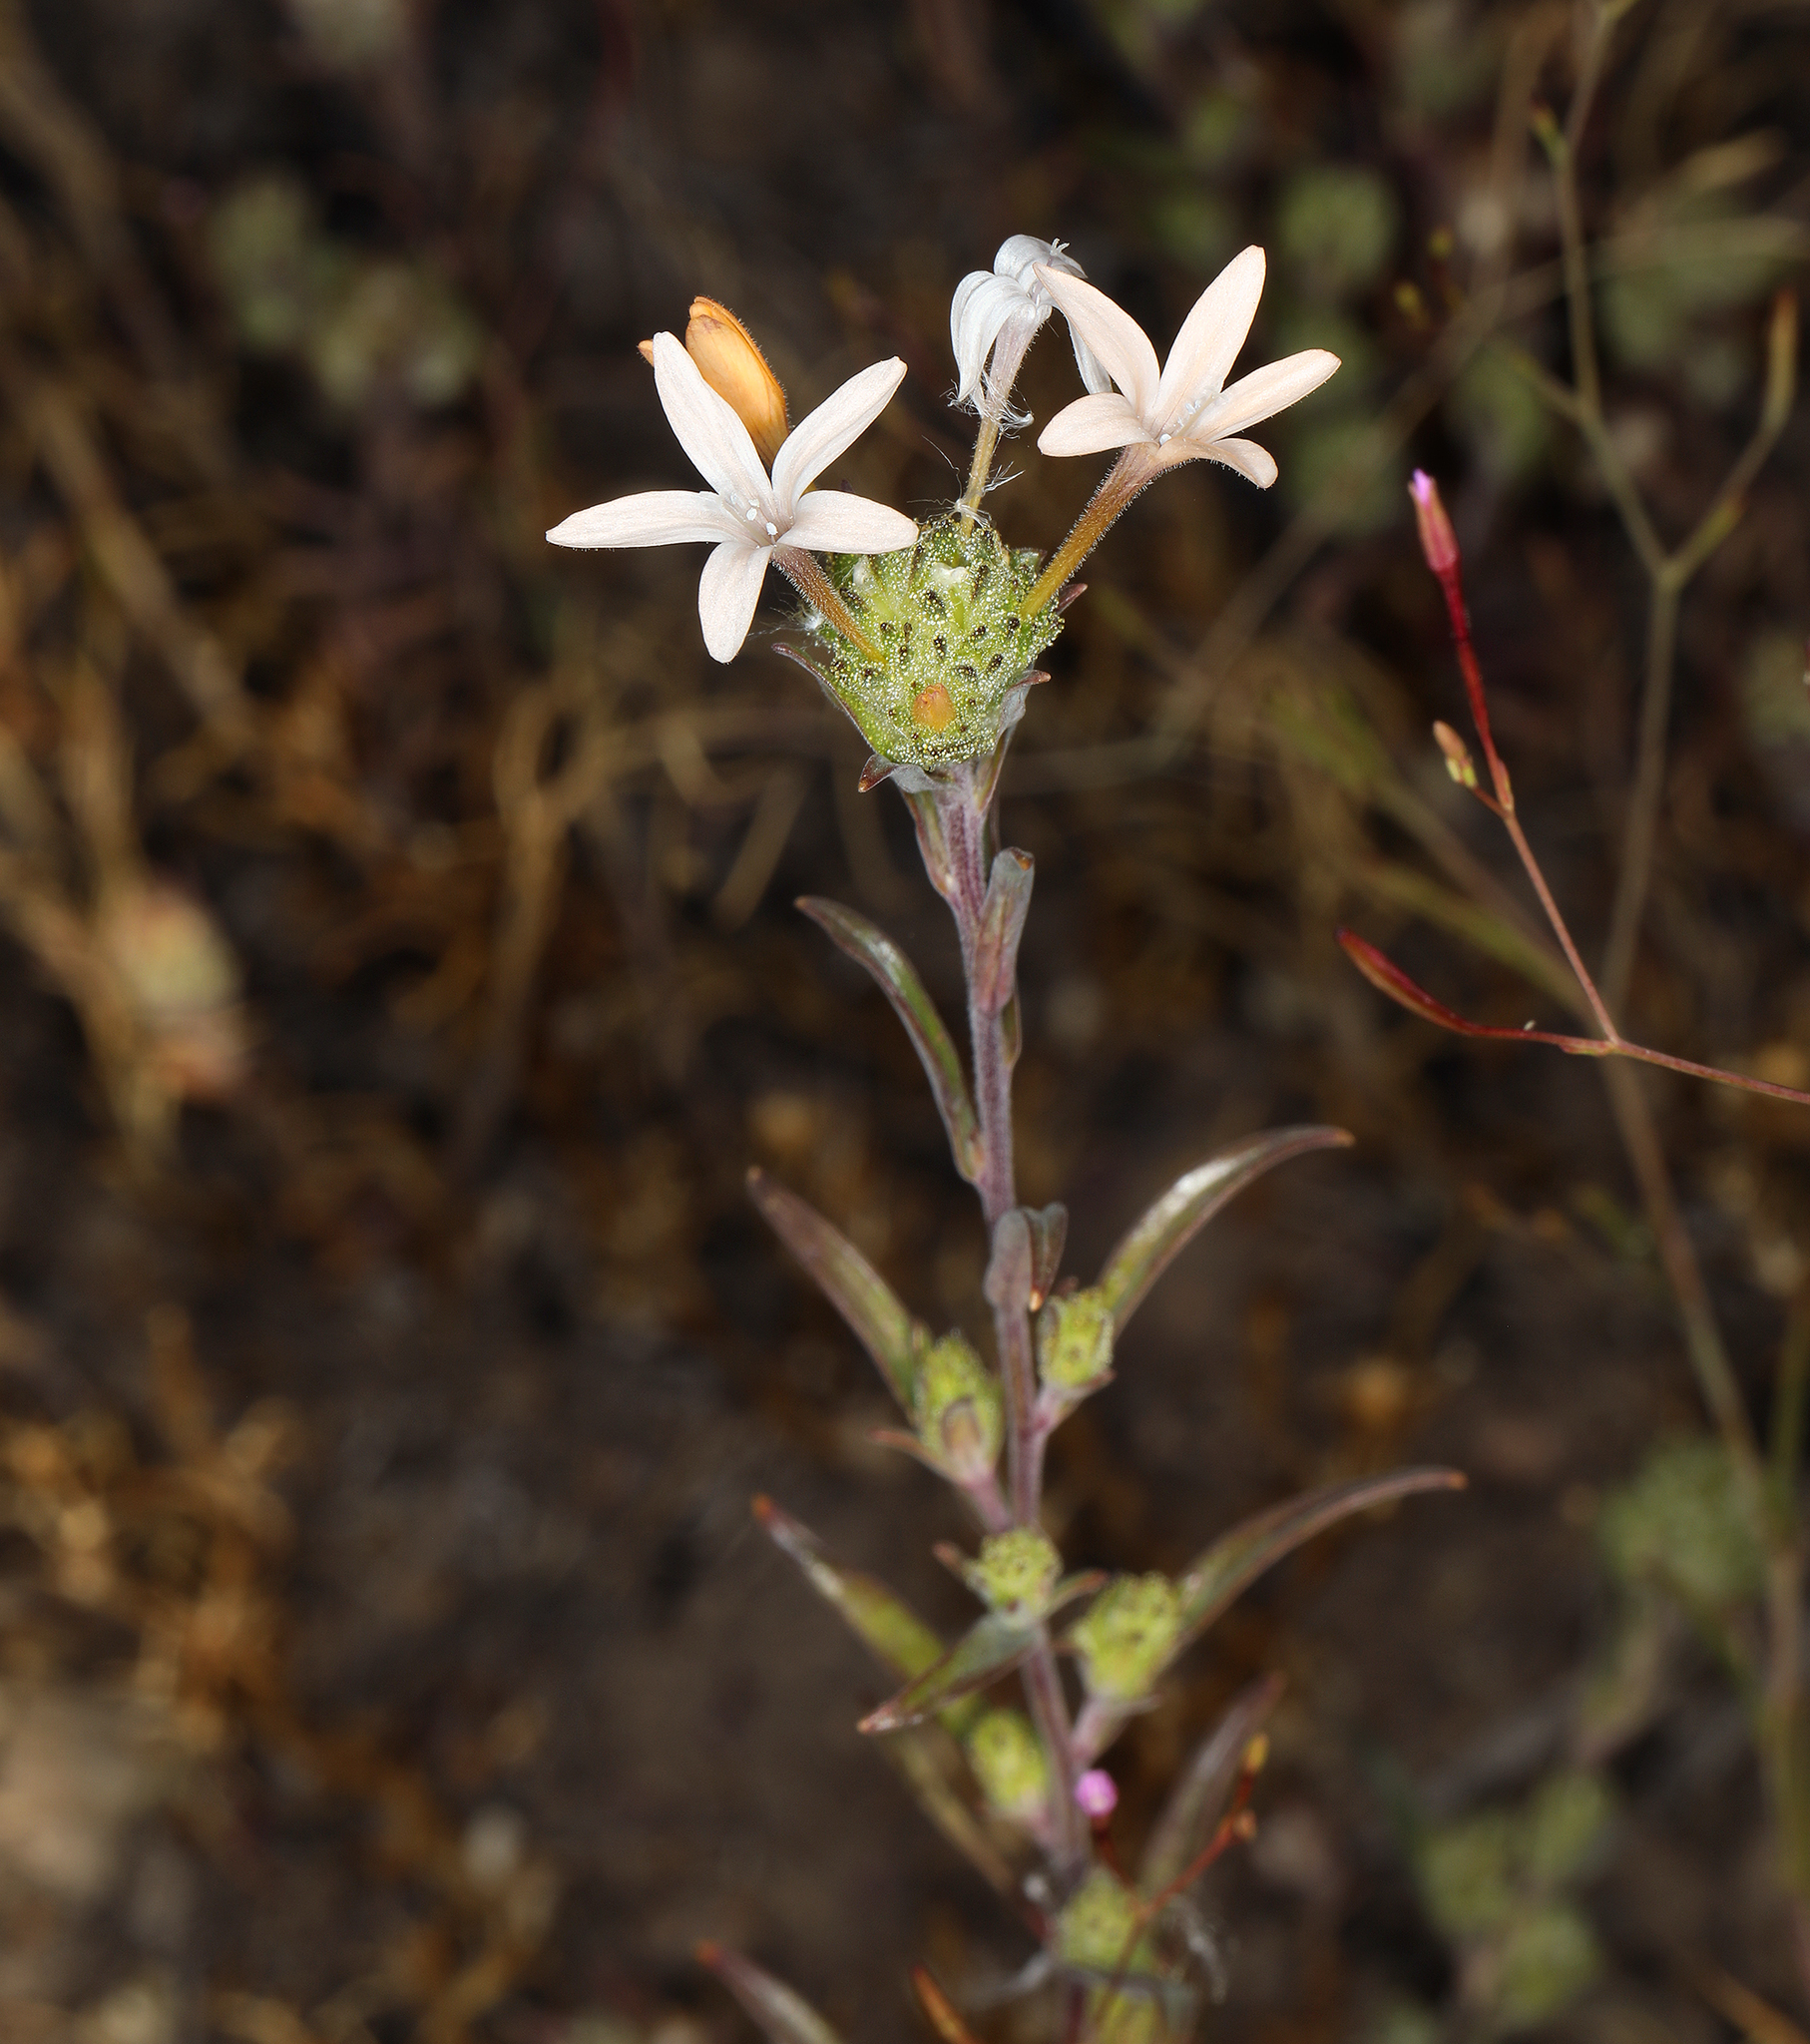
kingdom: Plantae
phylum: Tracheophyta
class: Magnoliopsida
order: Ericales
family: Polemoniaceae
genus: Collomia
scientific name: Collomia grandiflora
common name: California strawflower
